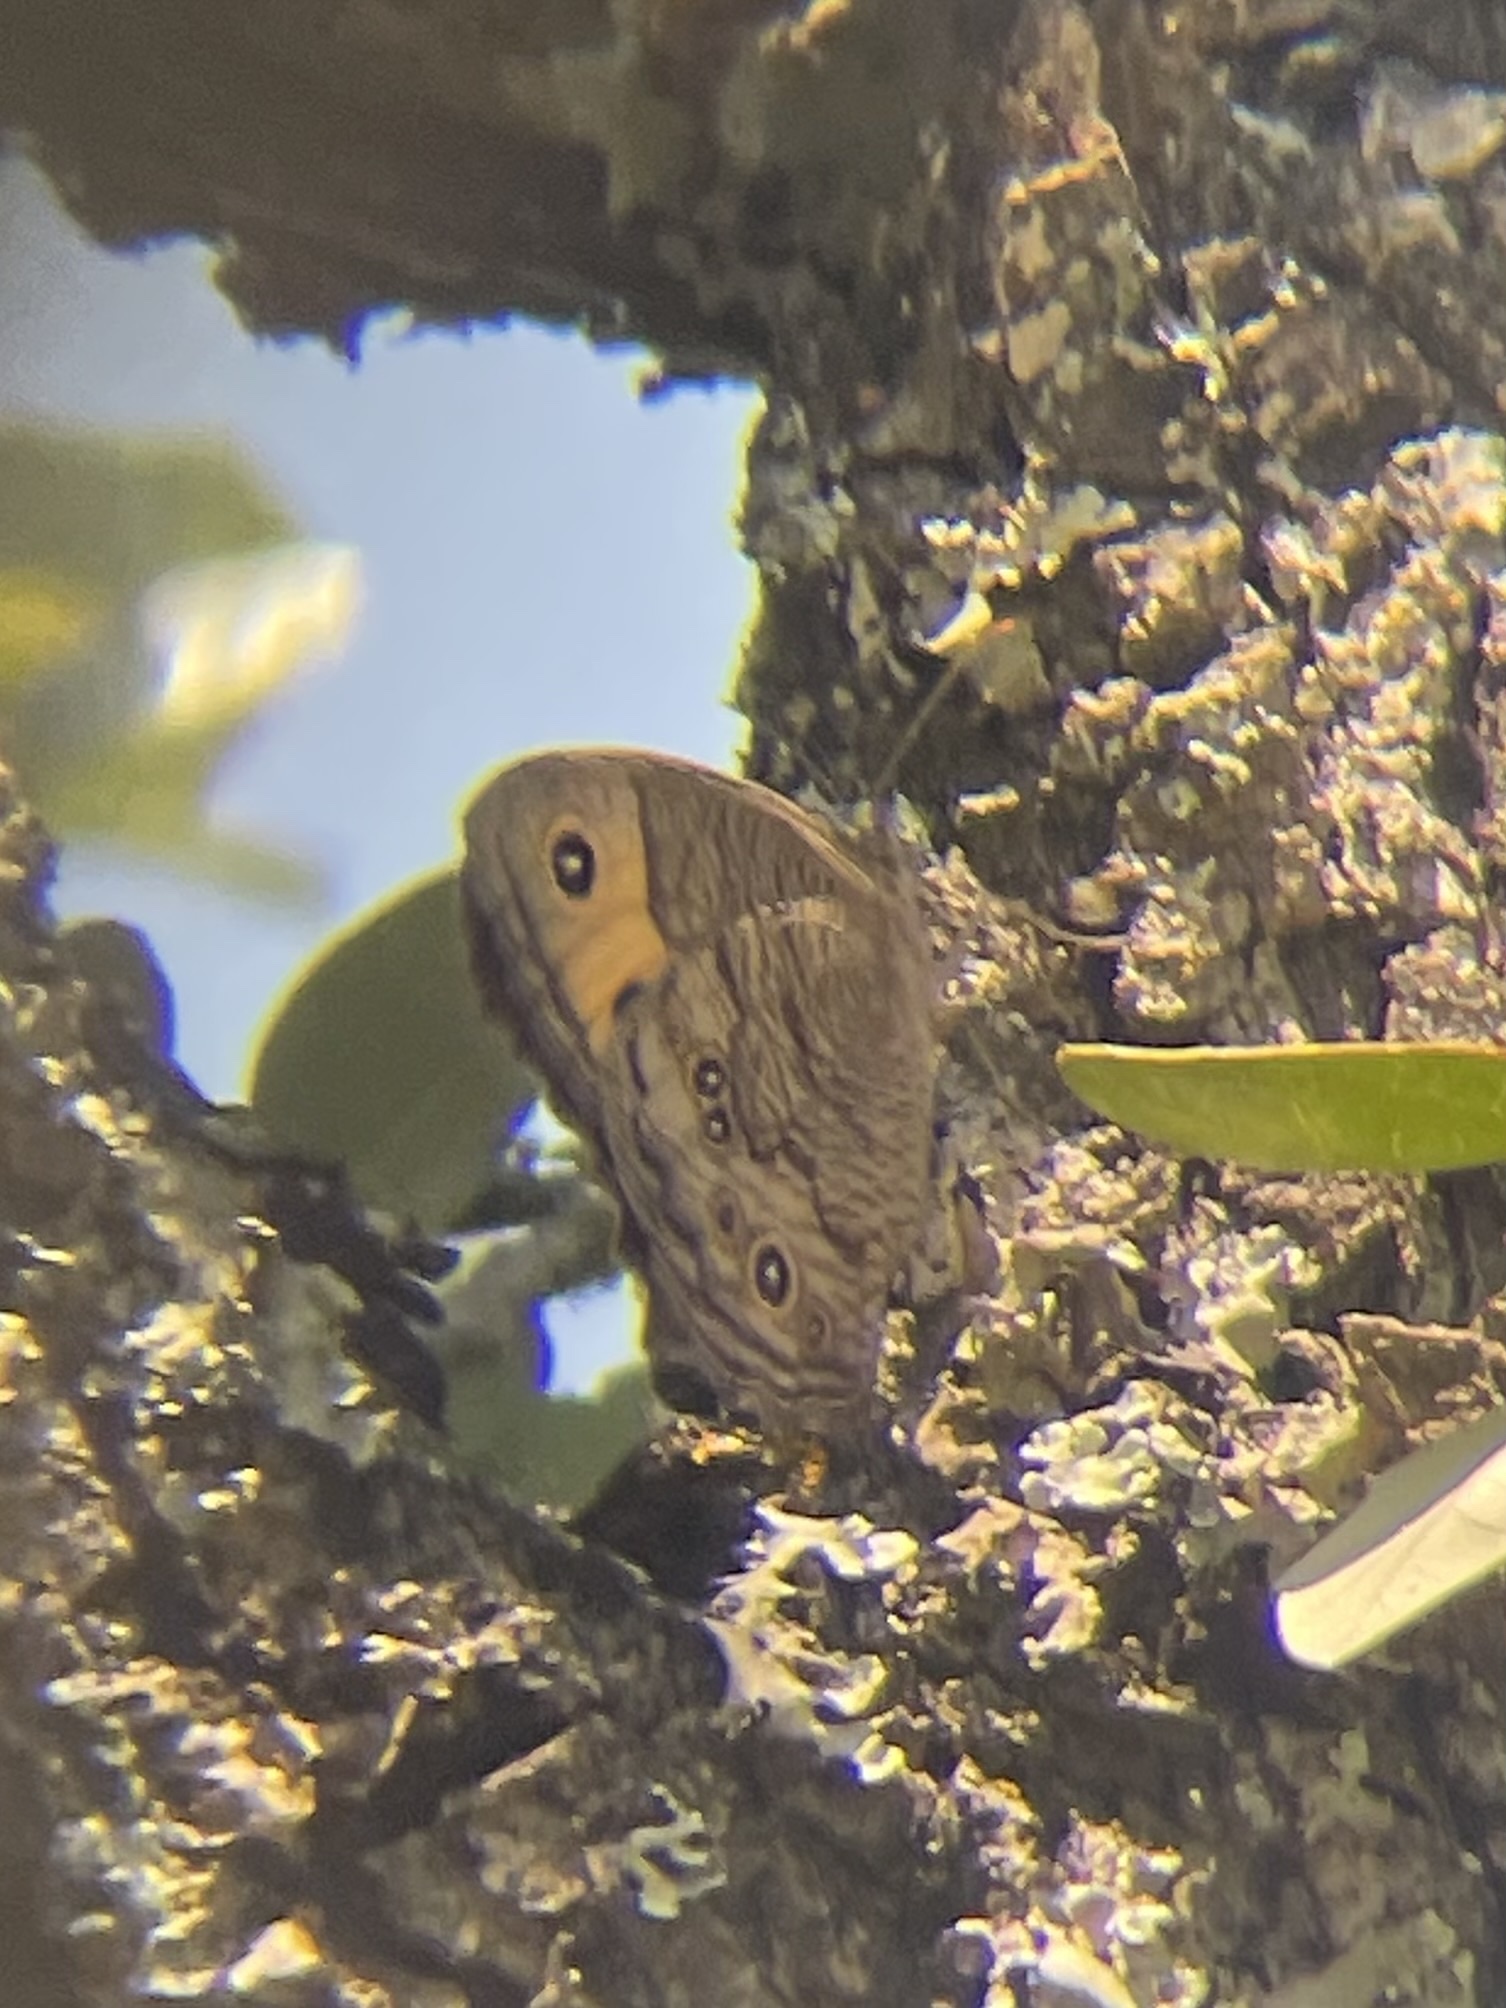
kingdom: Animalia
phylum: Arthropoda
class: Insecta
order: Lepidoptera
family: Nymphalidae
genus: Cercyonis
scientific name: Cercyonis pegala
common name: Common wood-nymph
